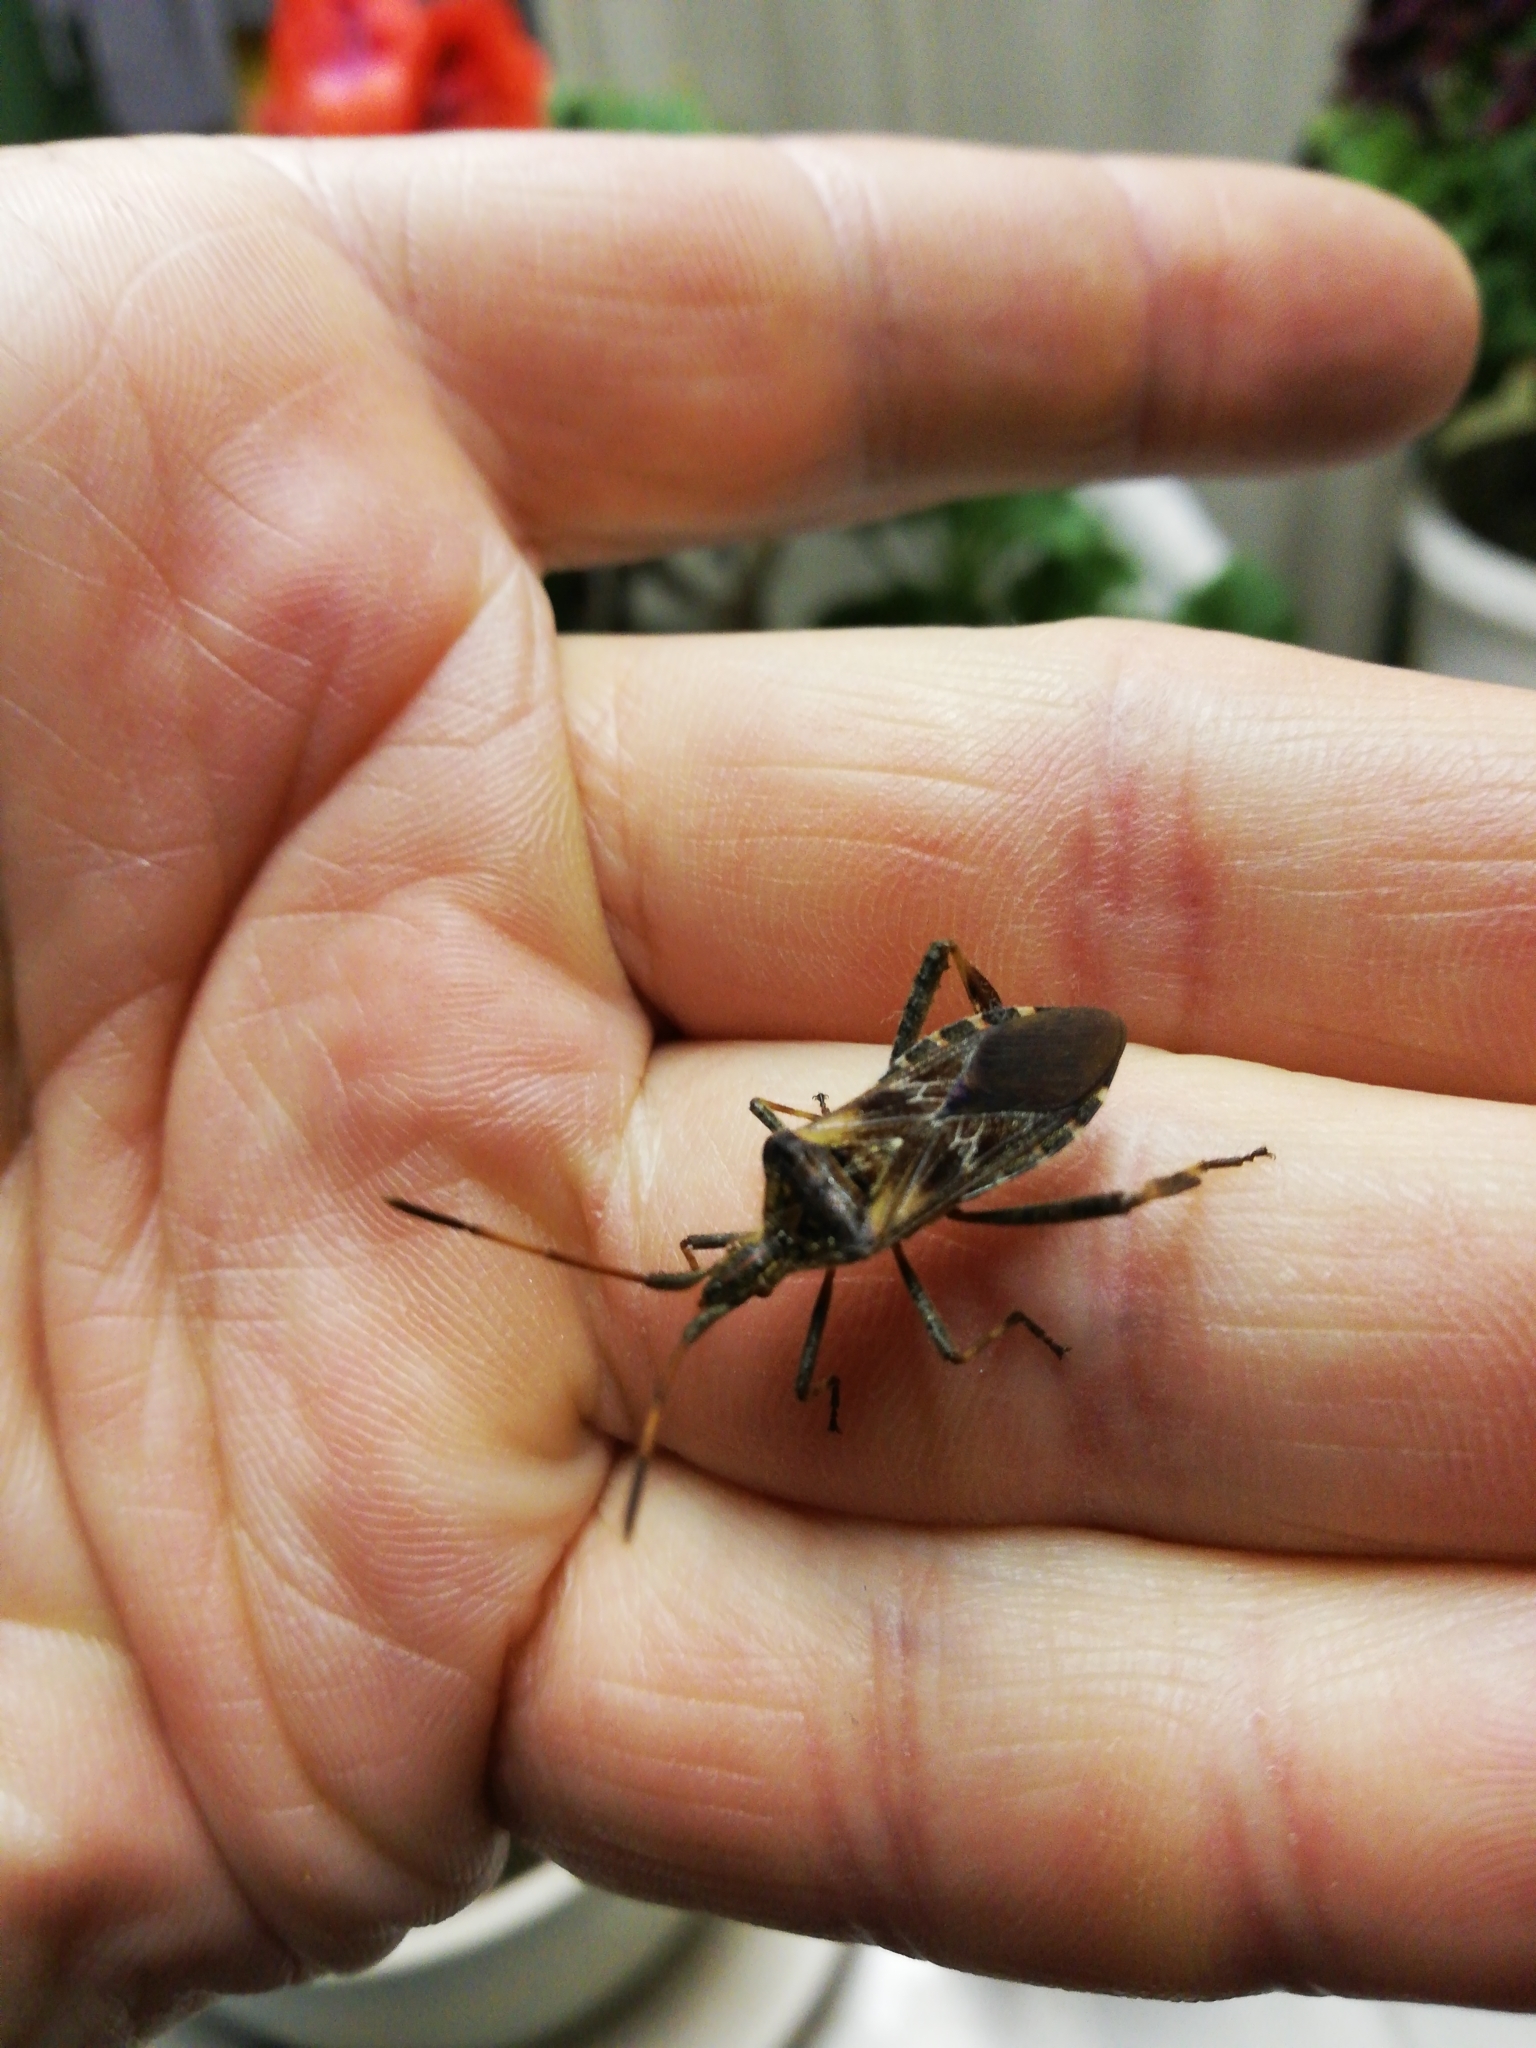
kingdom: Animalia
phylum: Arthropoda
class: Insecta
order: Hemiptera
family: Coreidae
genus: Leptoglossus
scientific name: Leptoglossus occidentalis
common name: Western conifer-seed bug
